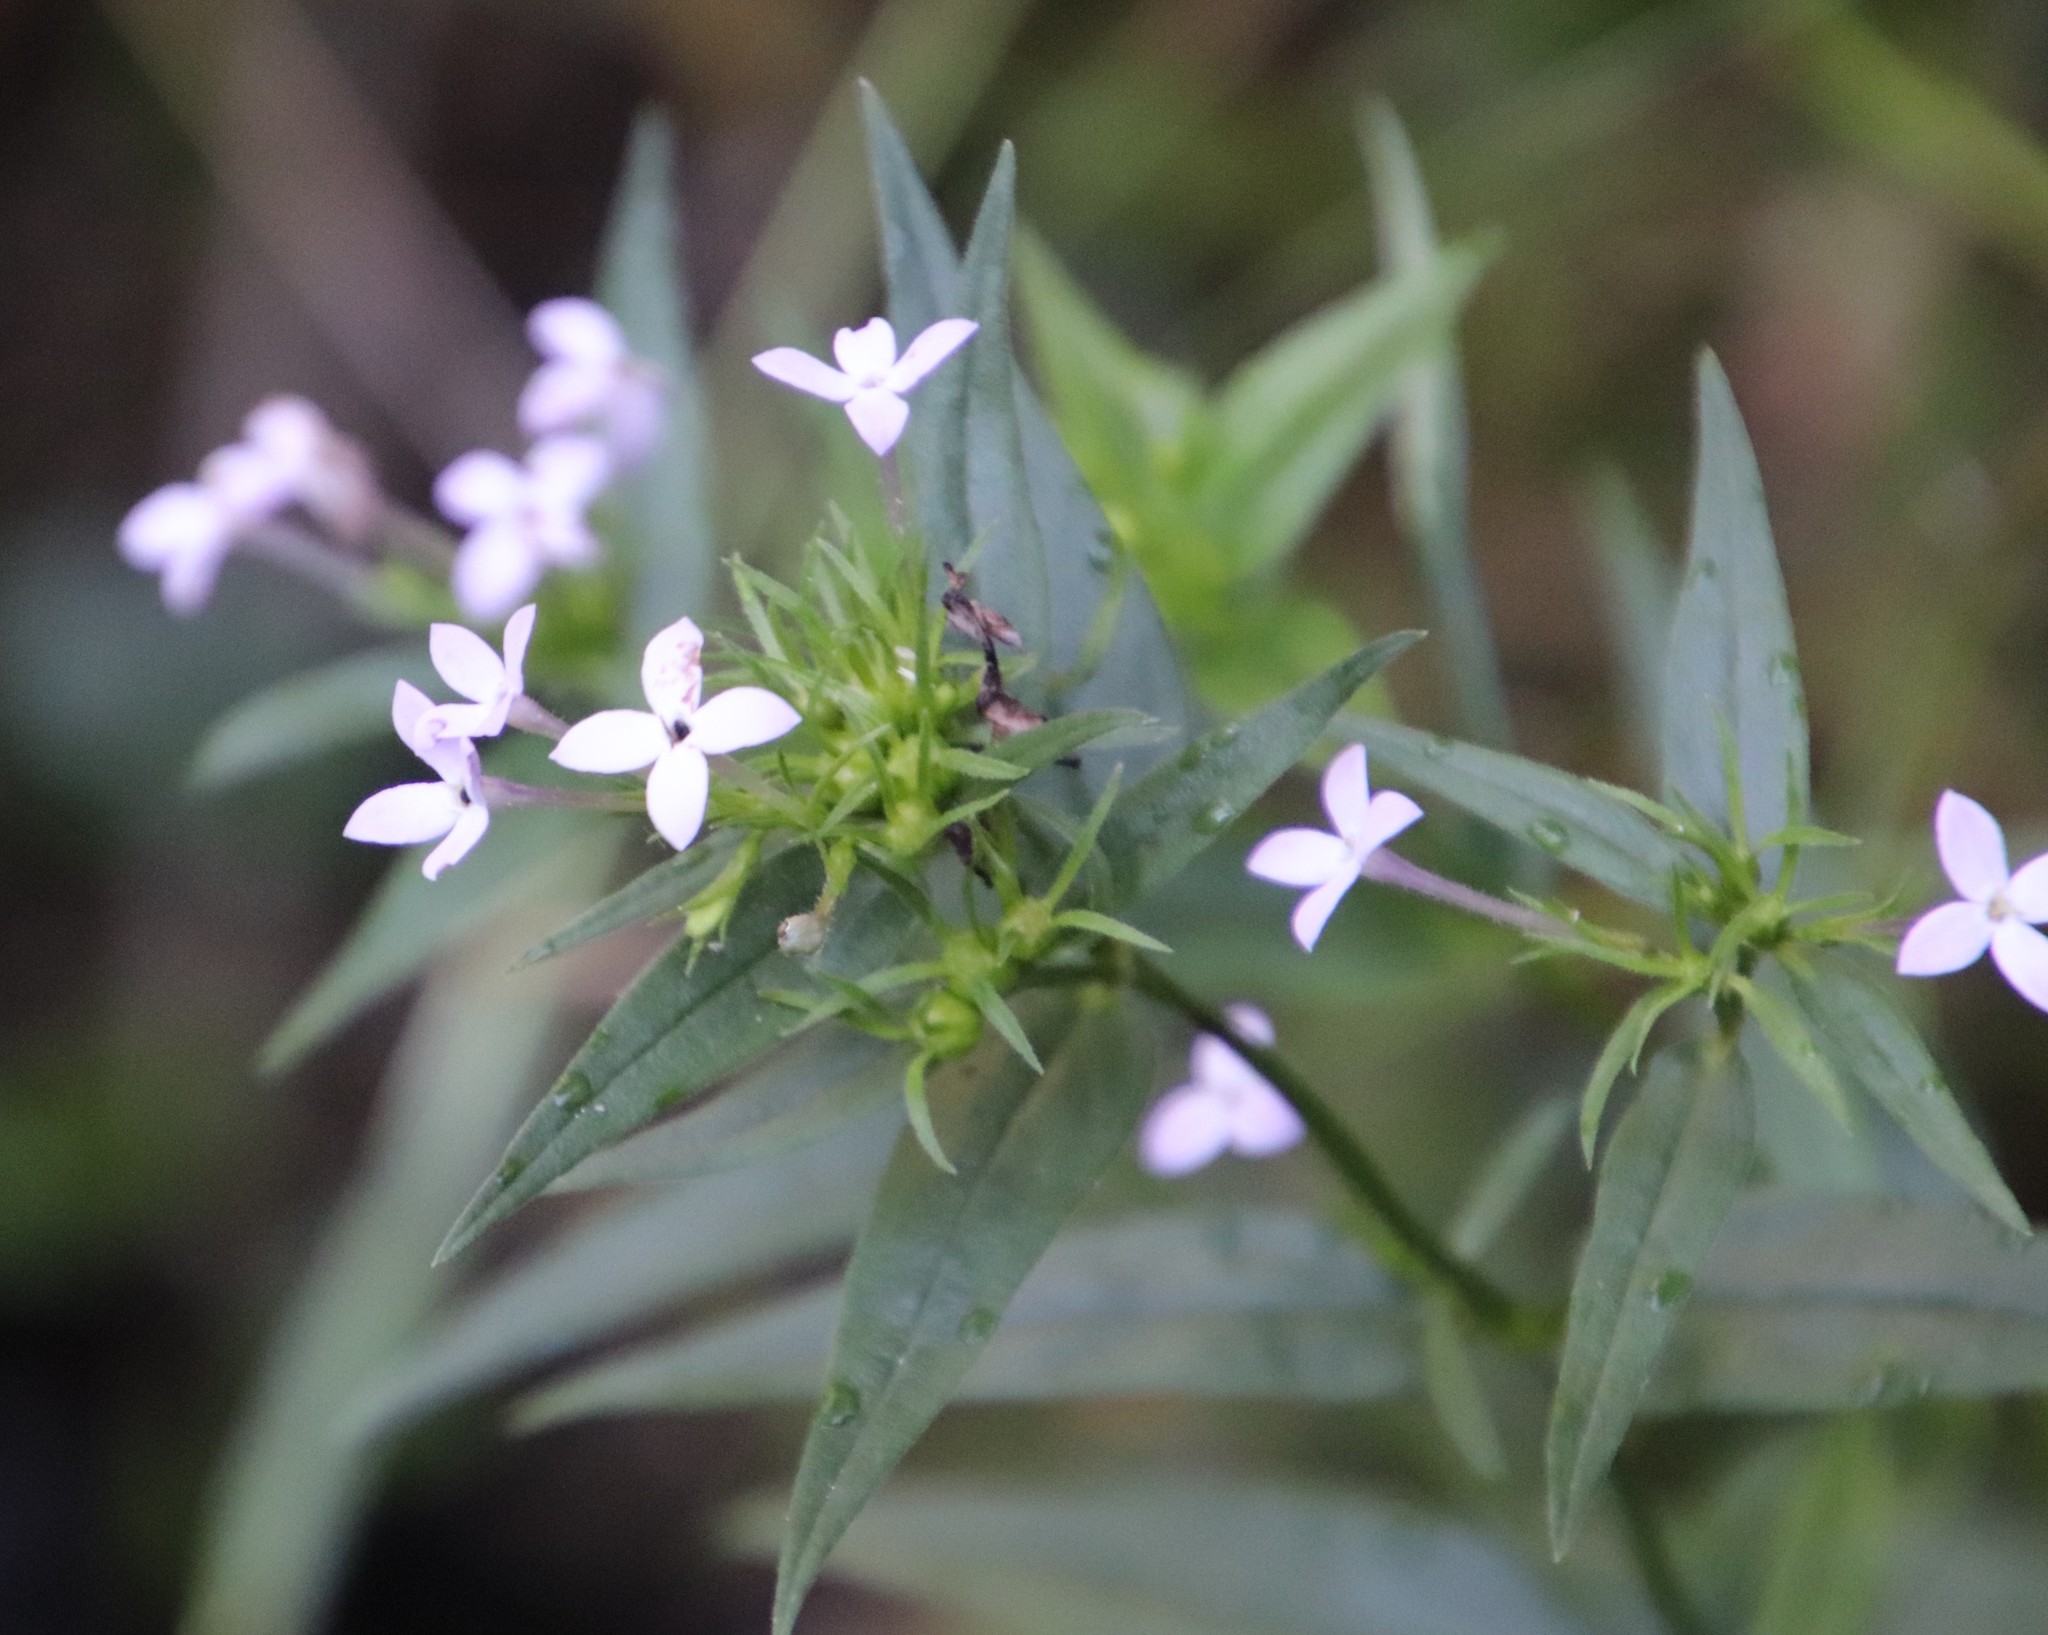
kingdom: Plantae
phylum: Tracheophyta
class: Magnoliopsida
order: Gentianales
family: Rubiaceae
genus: Conostomium
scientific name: Conostomium natalense
